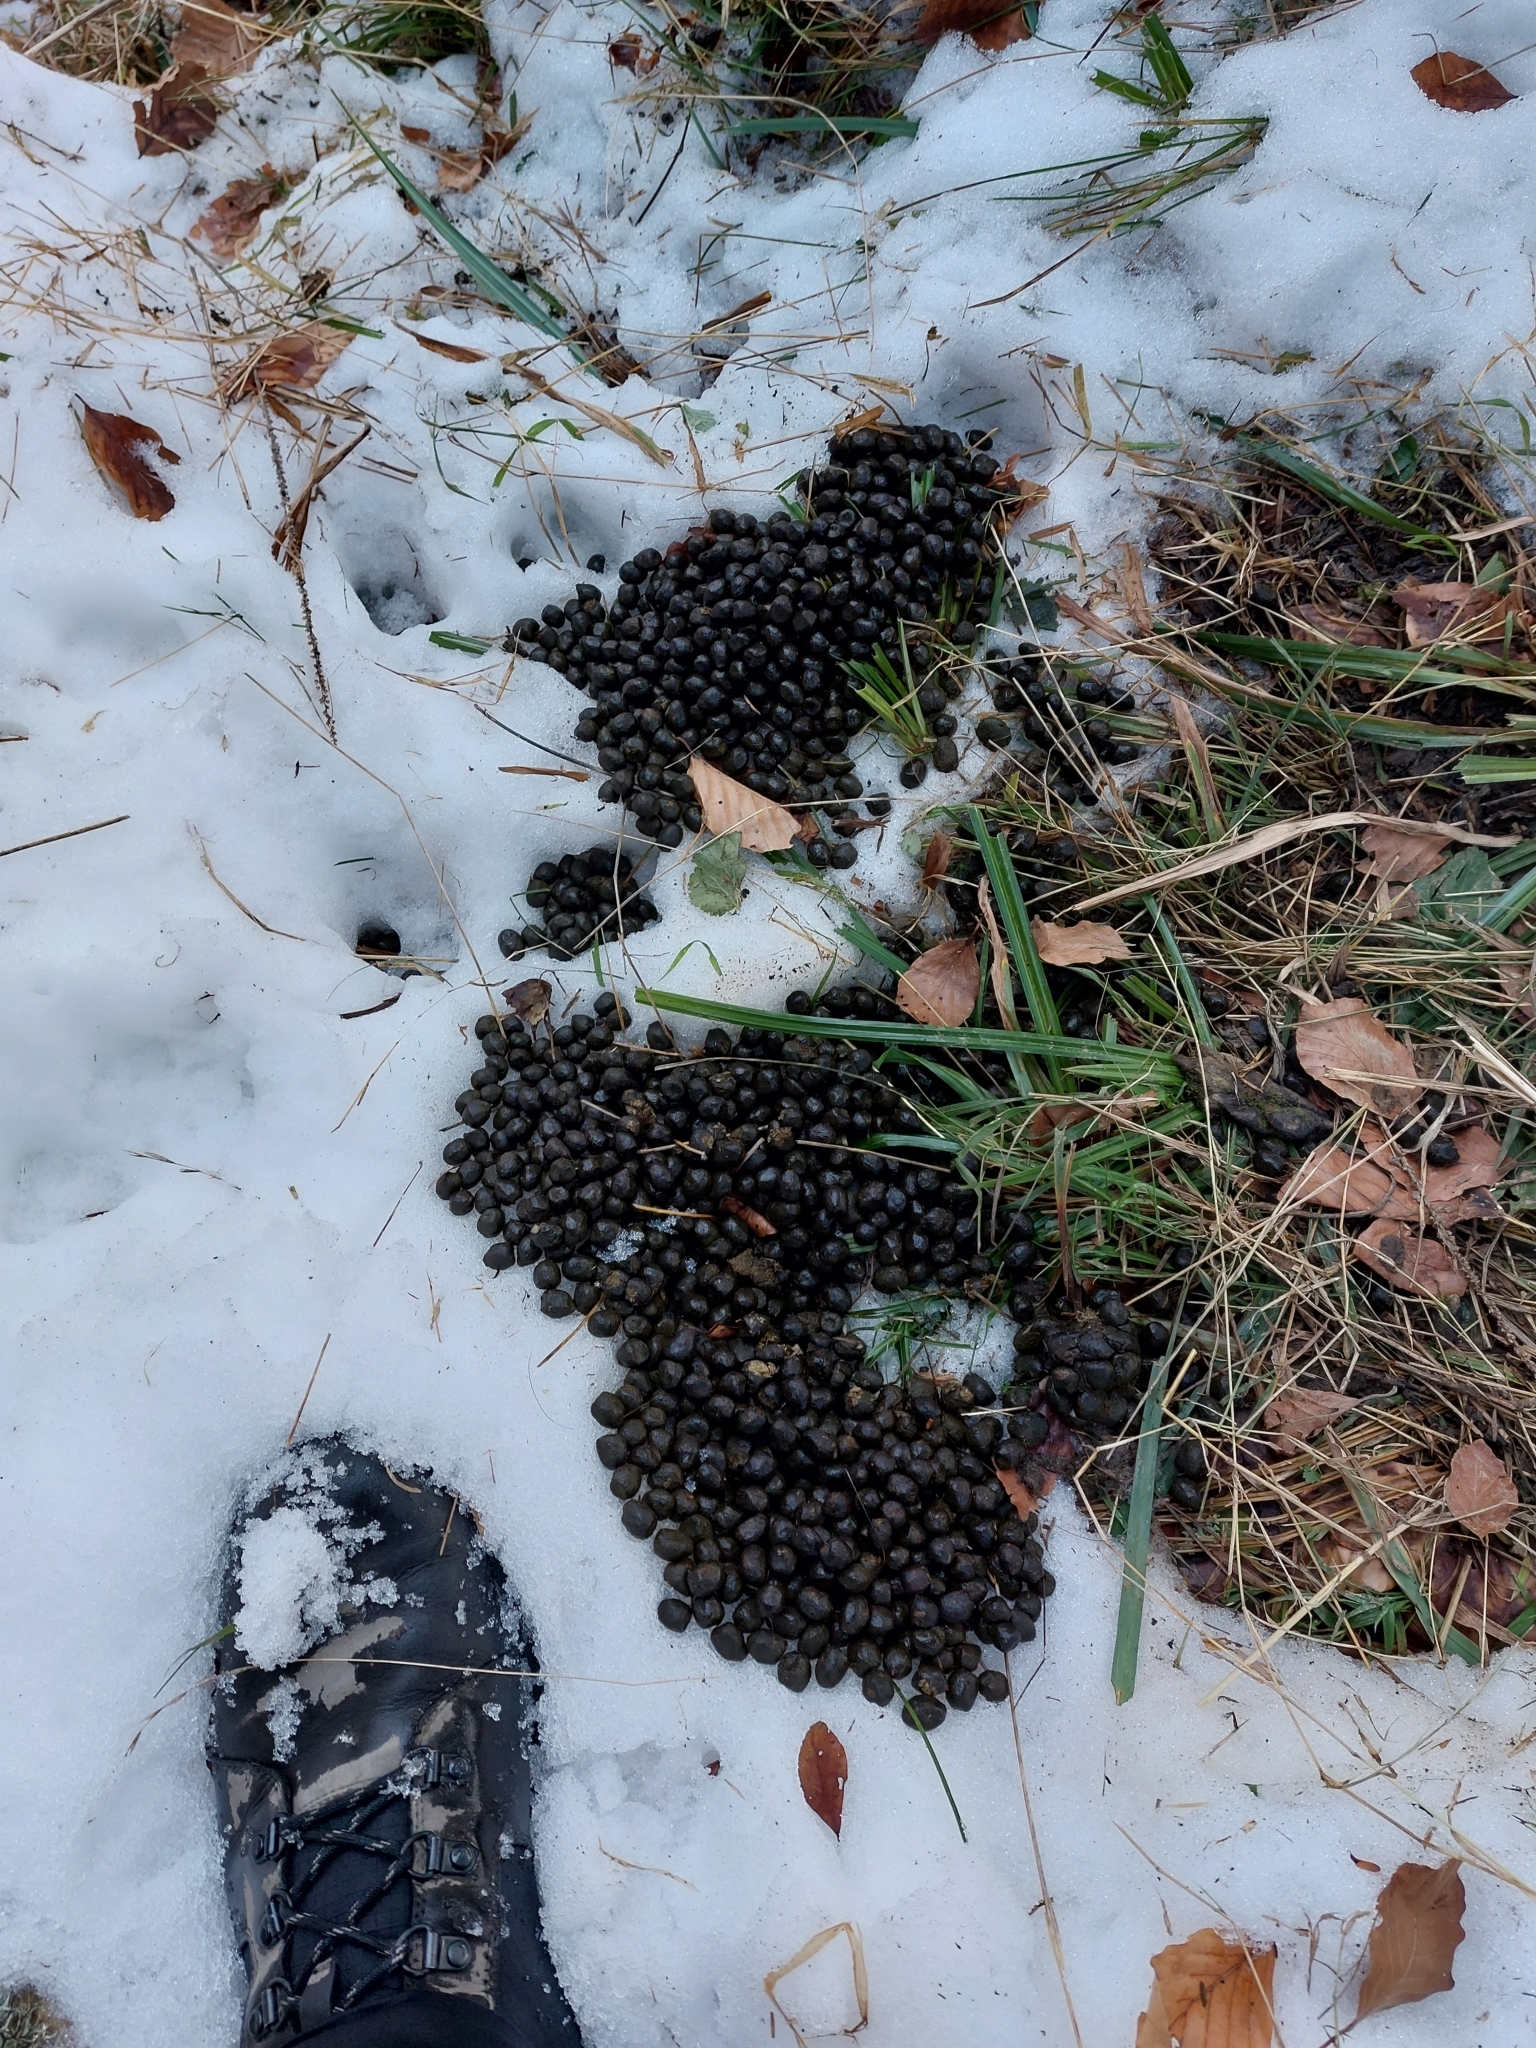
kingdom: Animalia
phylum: Chordata
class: Mammalia
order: Lagomorpha
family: Leporidae
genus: Oryctolagus
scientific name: Oryctolagus cuniculus
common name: European rabbit
